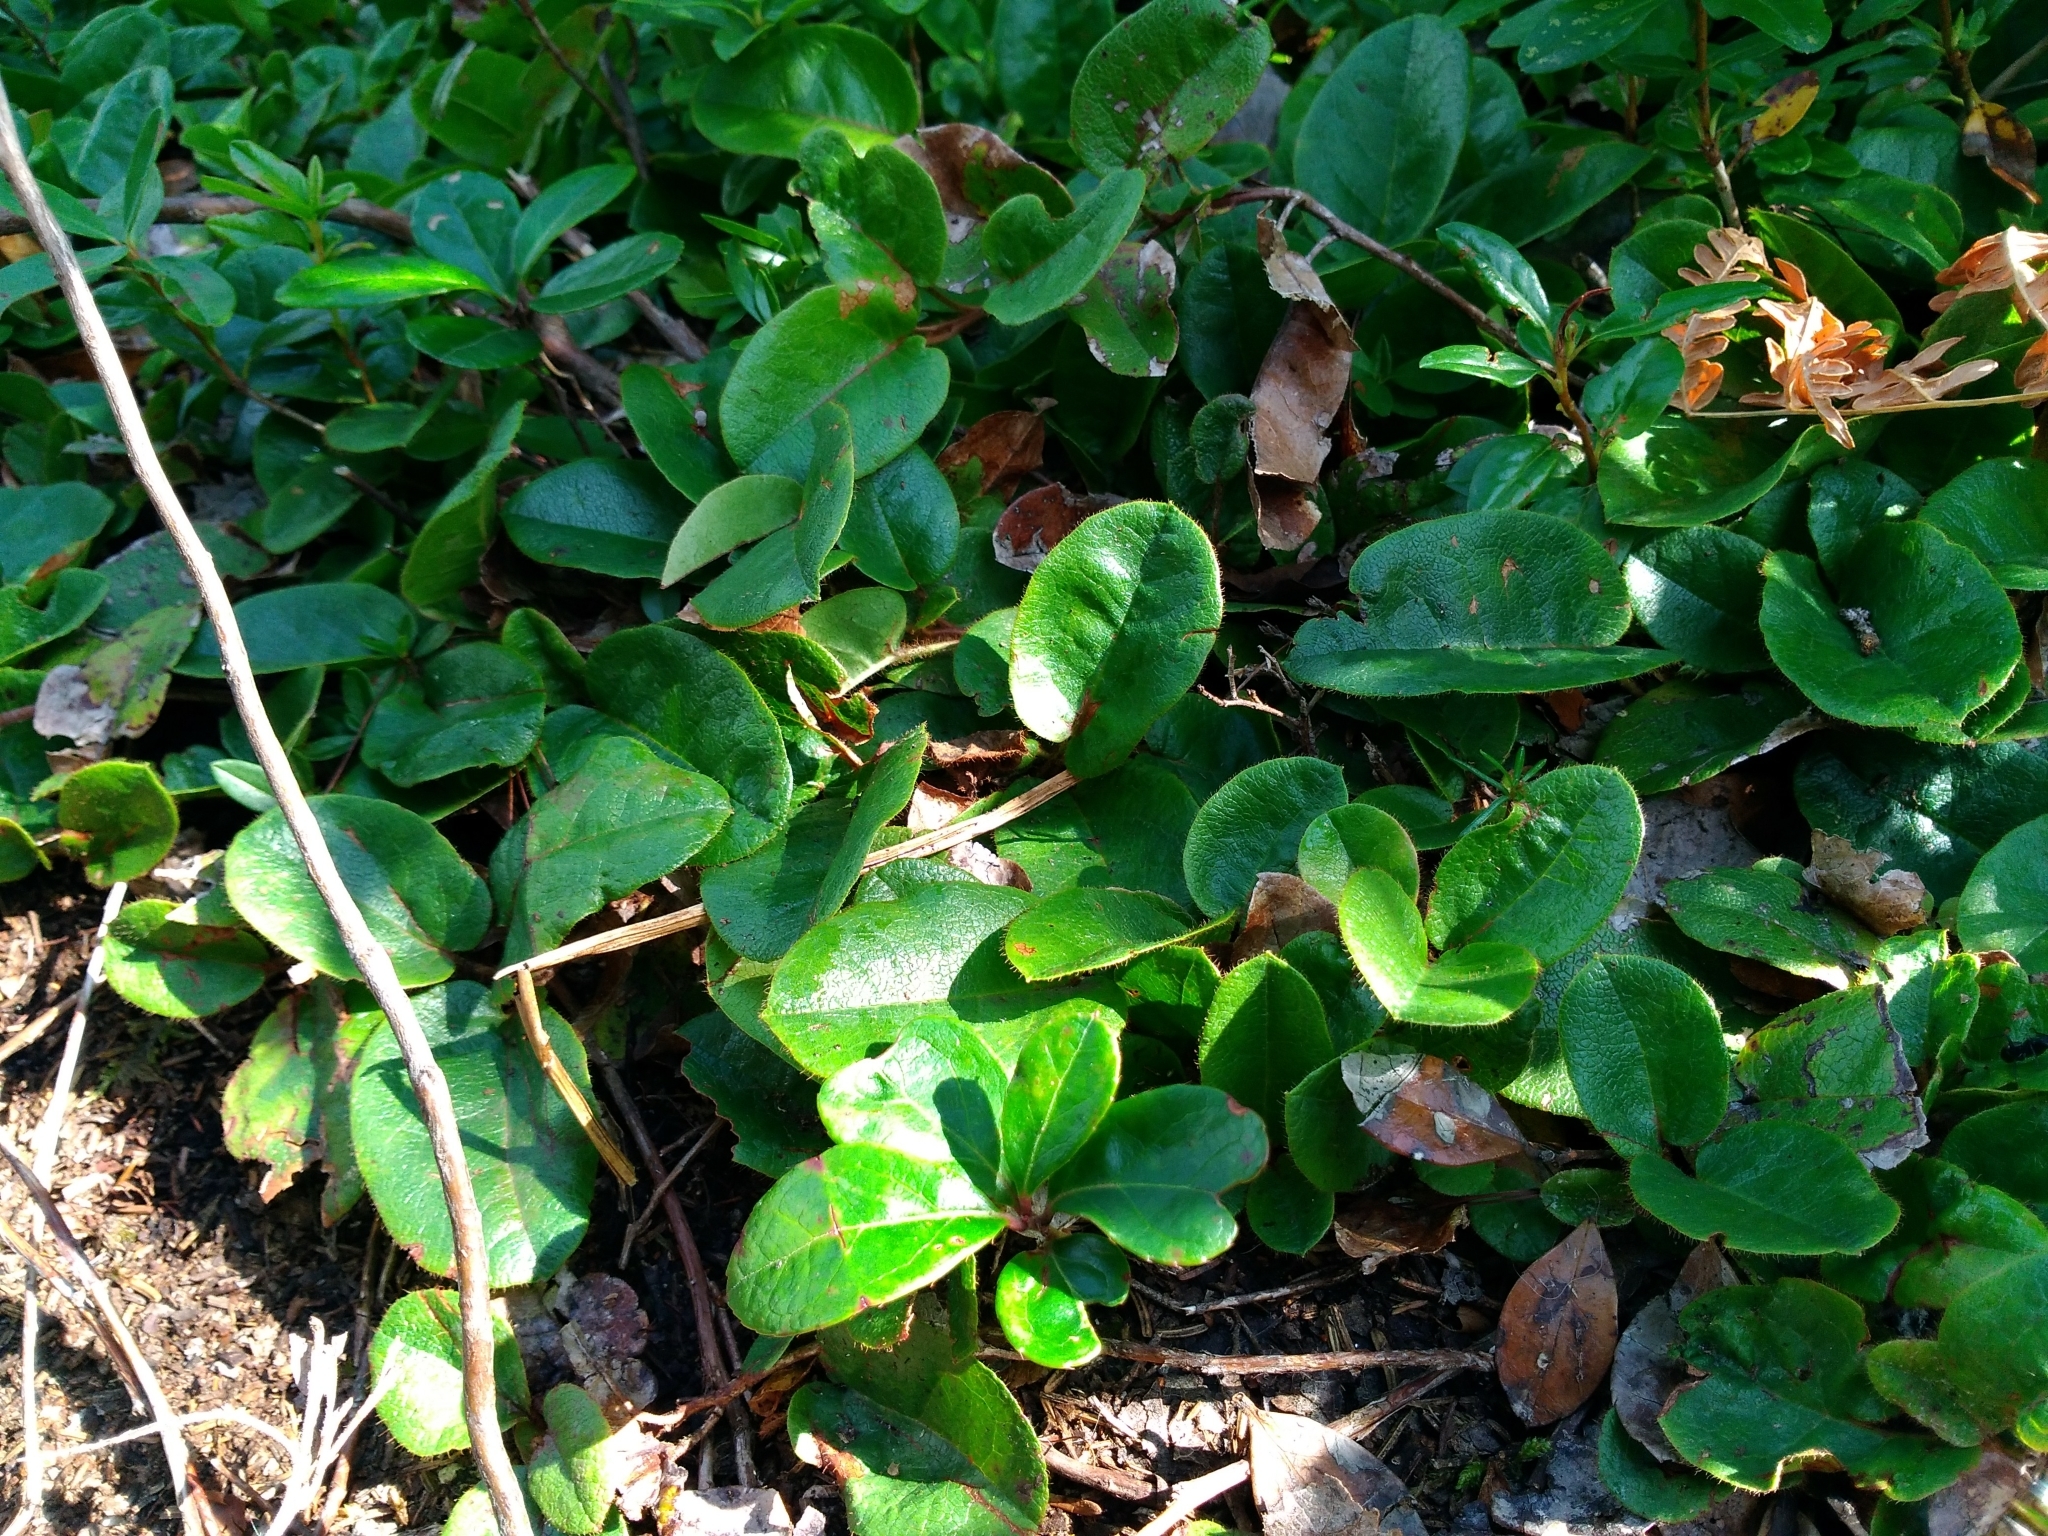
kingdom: Plantae
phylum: Tracheophyta
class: Magnoliopsida
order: Ericales
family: Ericaceae
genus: Epigaea
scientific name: Epigaea repens
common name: Gravelroot
